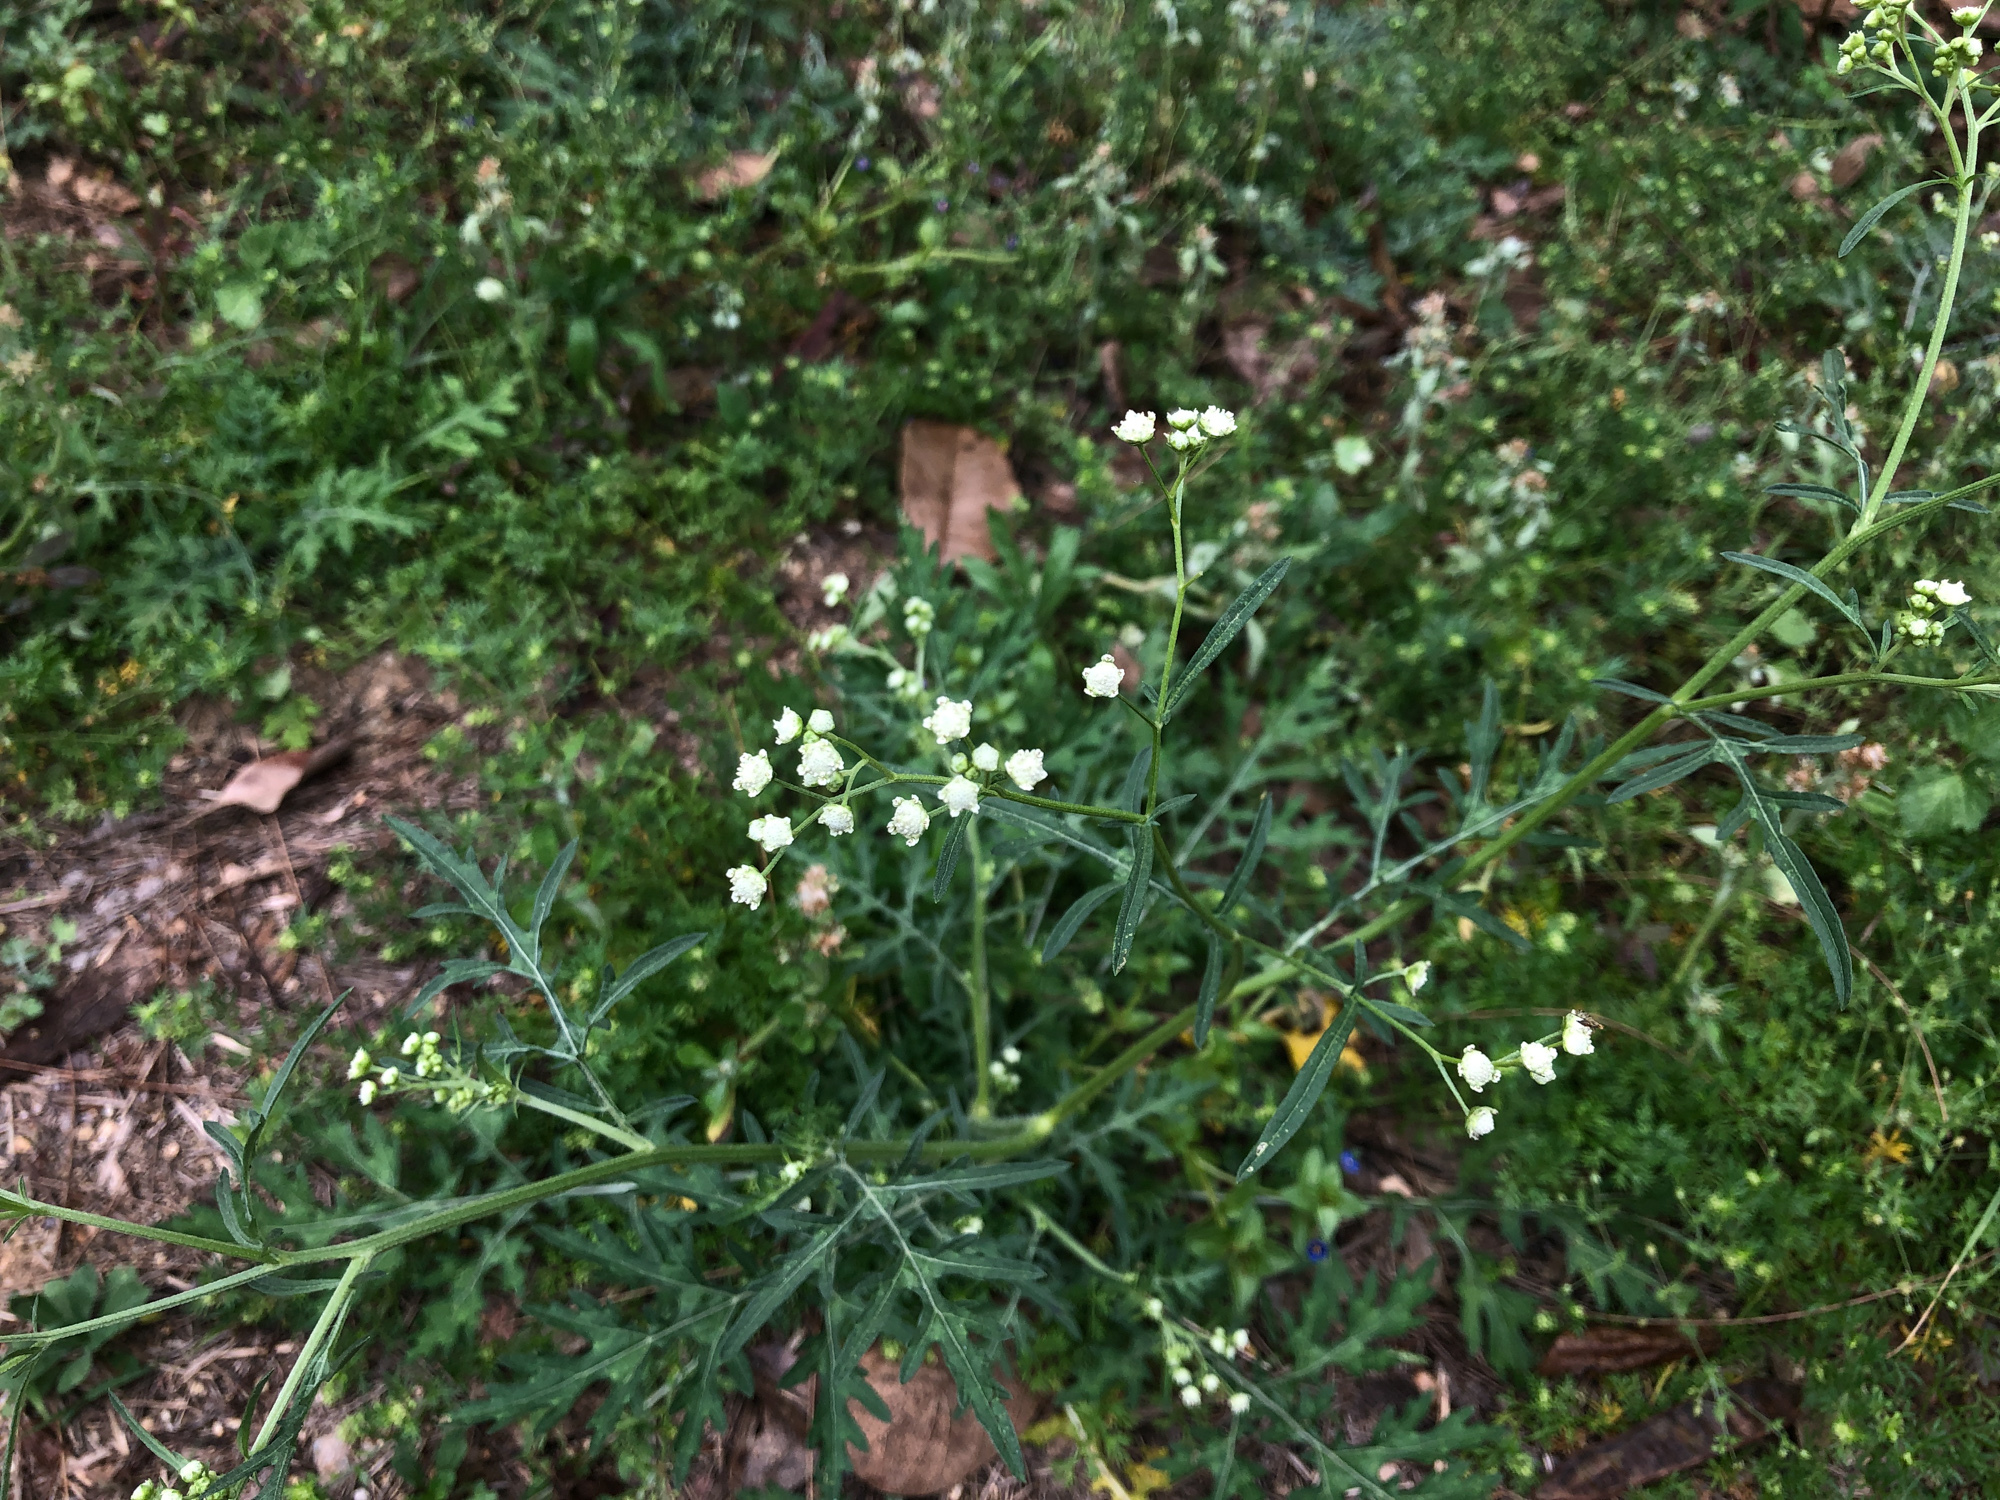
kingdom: Plantae
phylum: Tracheophyta
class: Magnoliopsida
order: Asterales
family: Asteraceae
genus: Parthenium
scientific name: Parthenium hysterophorus
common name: Santa maria feverfew
